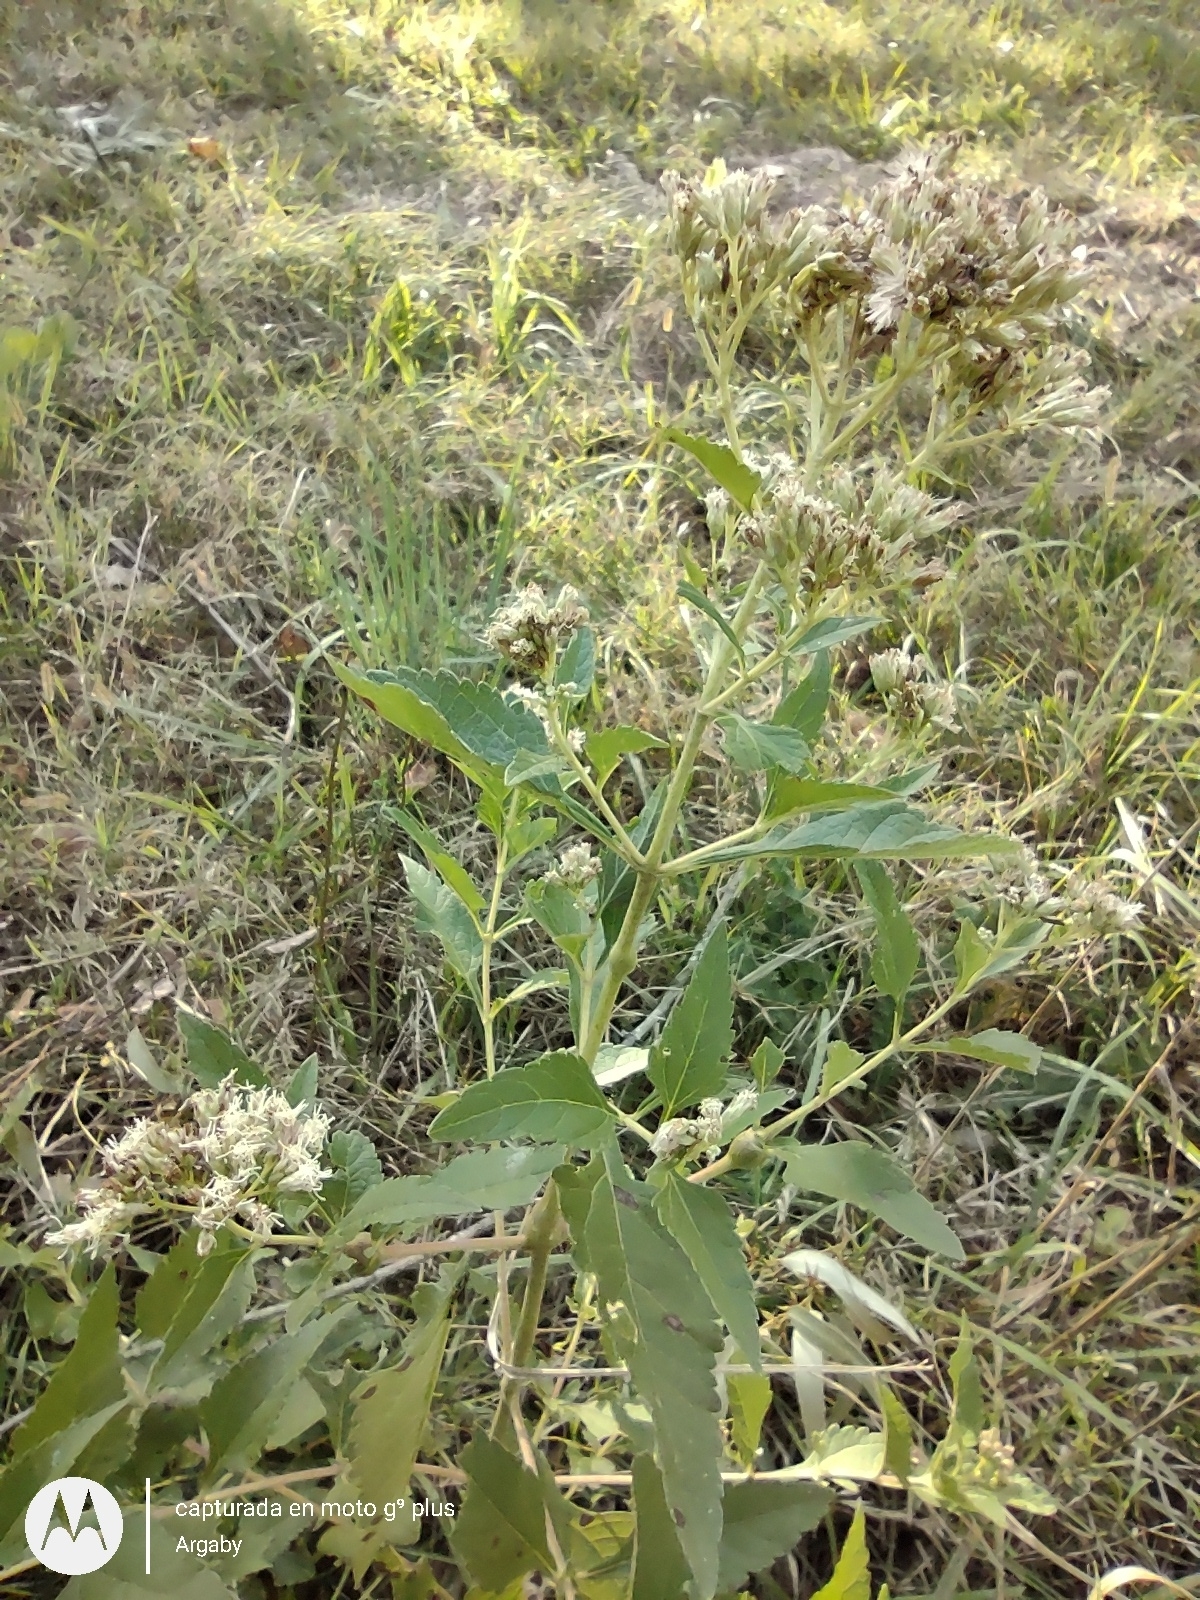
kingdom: Plantae
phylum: Tracheophyta
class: Magnoliopsida
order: Asterales
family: Asteraceae
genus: Austroeupatorium
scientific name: Austroeupatorium inulifolium
